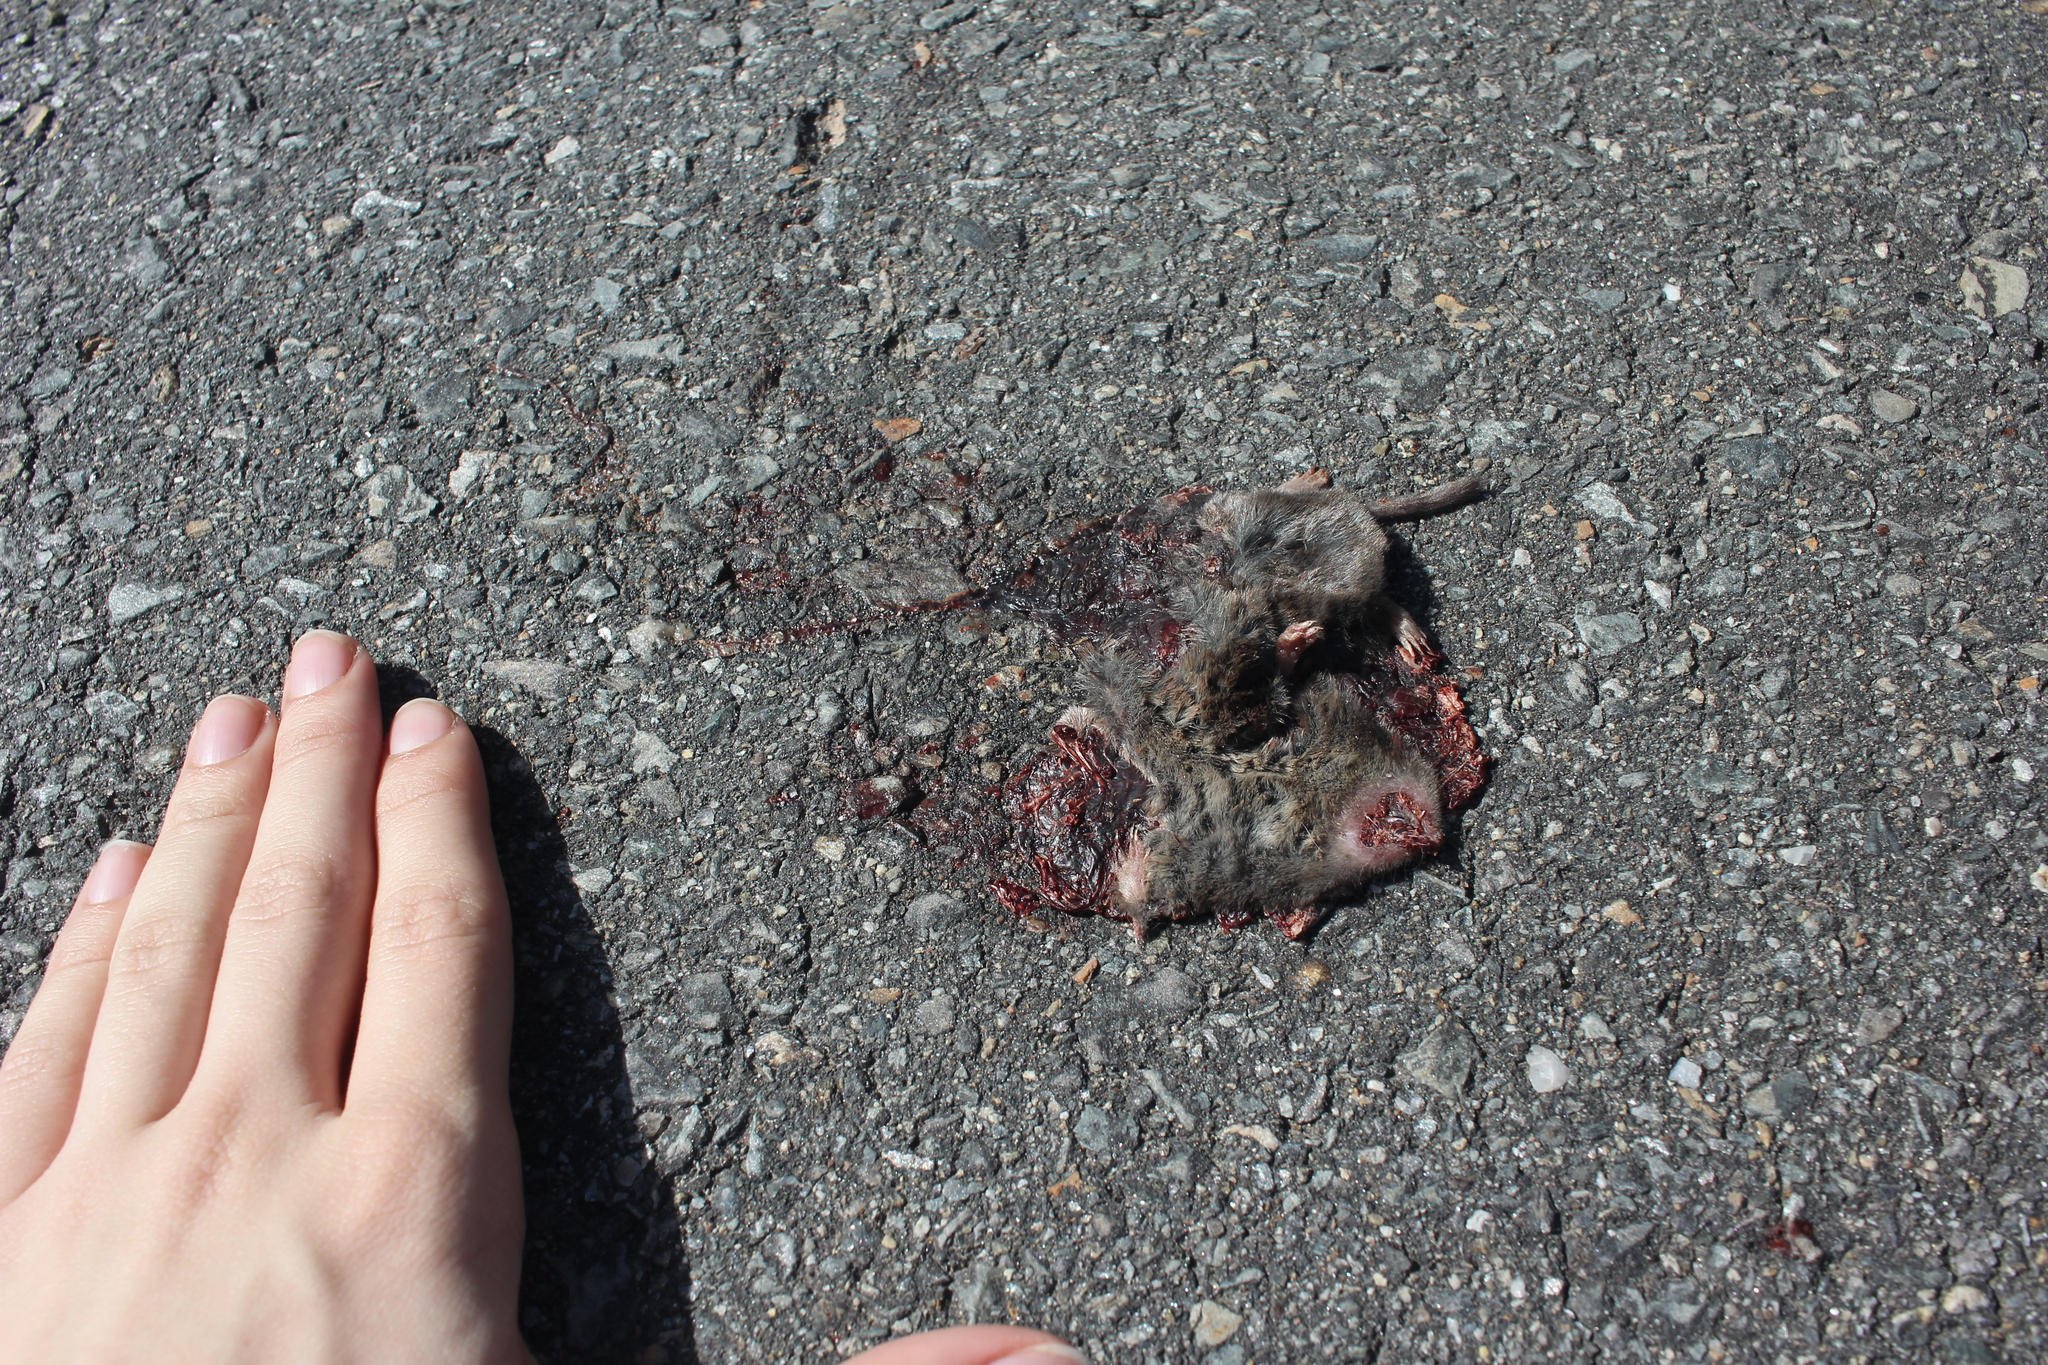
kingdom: Animalia
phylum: Chordata
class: Mammalia
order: Soricomorpha
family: Soricidae
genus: Blarina
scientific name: Blarina brevicauda
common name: Northern short-tailed shrew
